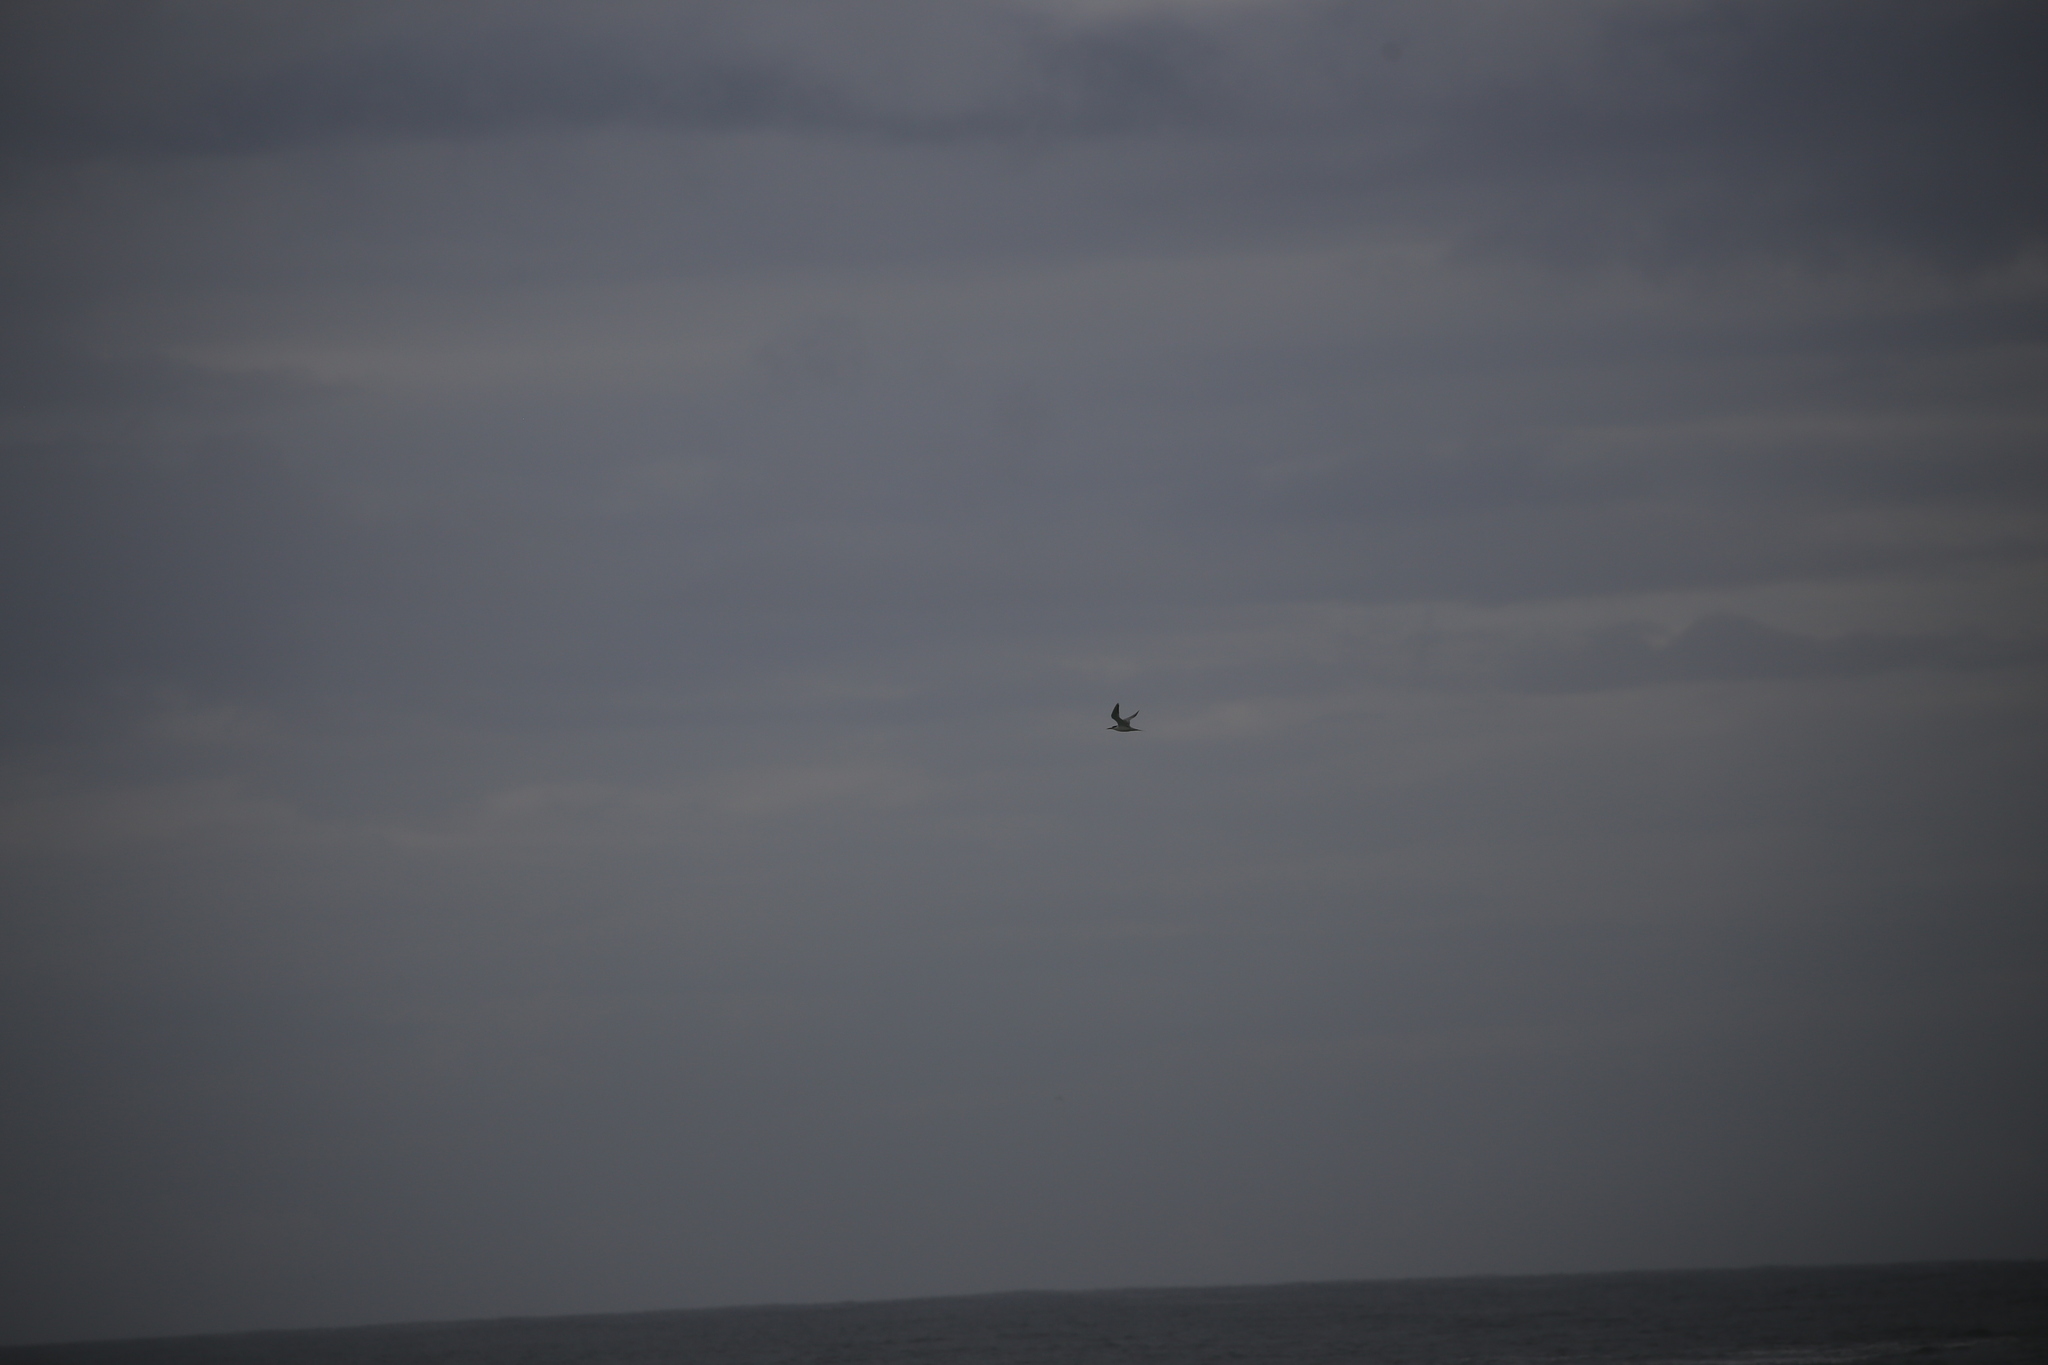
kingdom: Animalia
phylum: Chordata
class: Aves
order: Charadriiformes
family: Laridae
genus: Thalasseus
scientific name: Thalasseus bergii
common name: Greater crested tern
